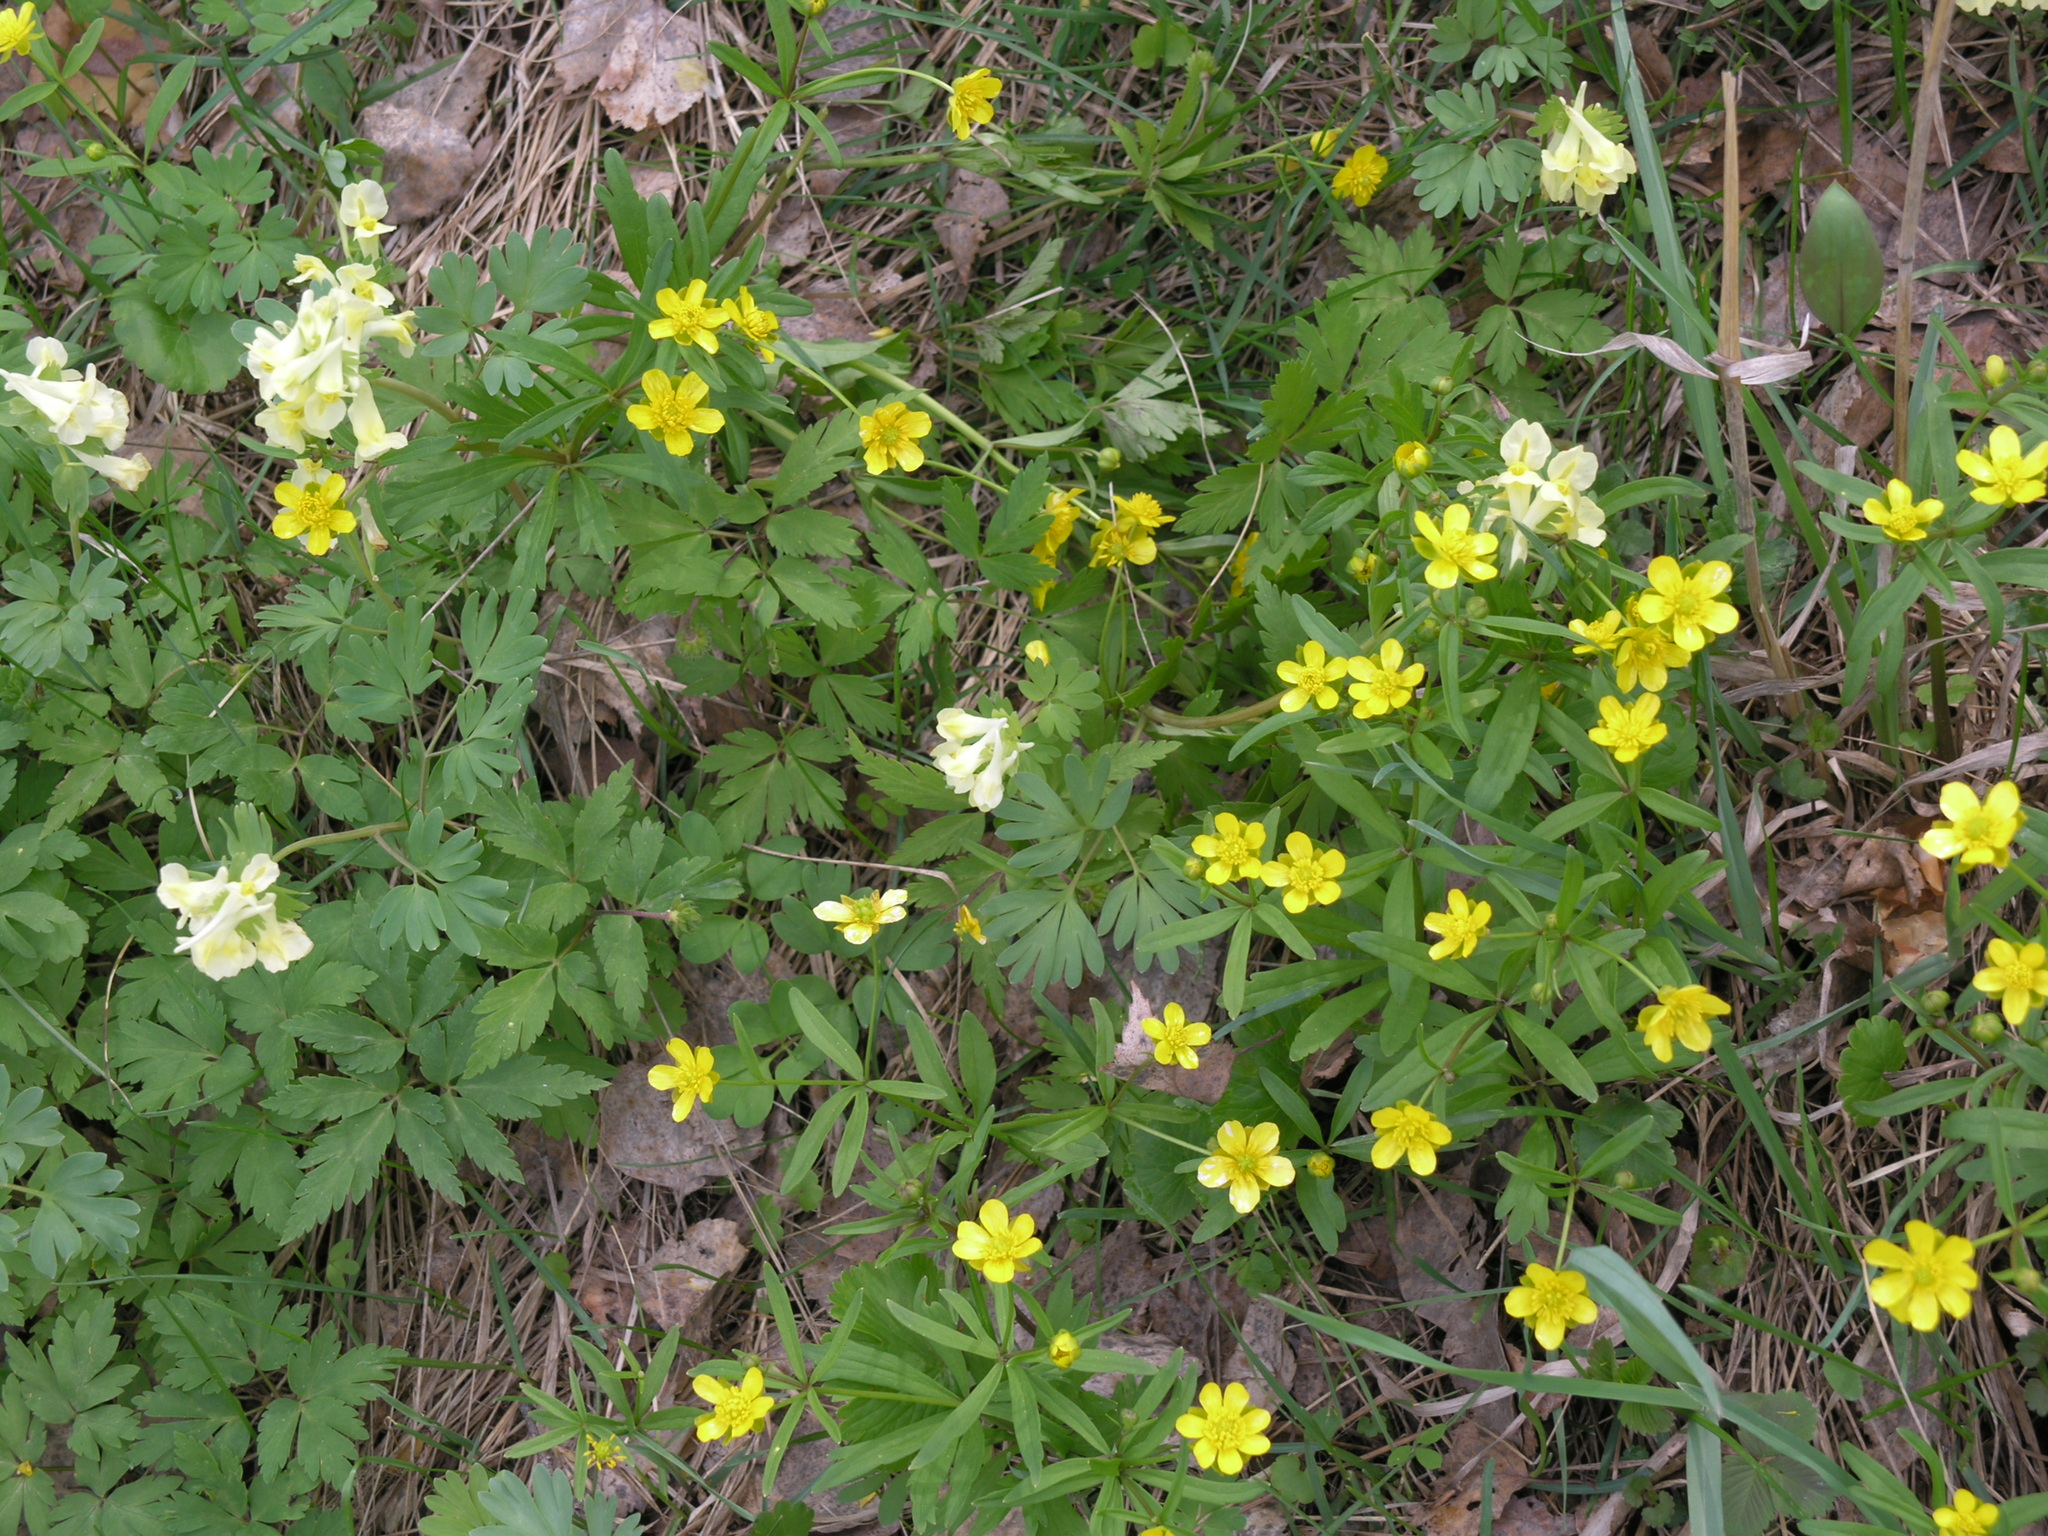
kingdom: Plantae
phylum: Tracheophyta
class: Magnoliopsida
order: Ranunculales
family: Ranunculaceae
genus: Ranunculus
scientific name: Ranunculus monophyllus
